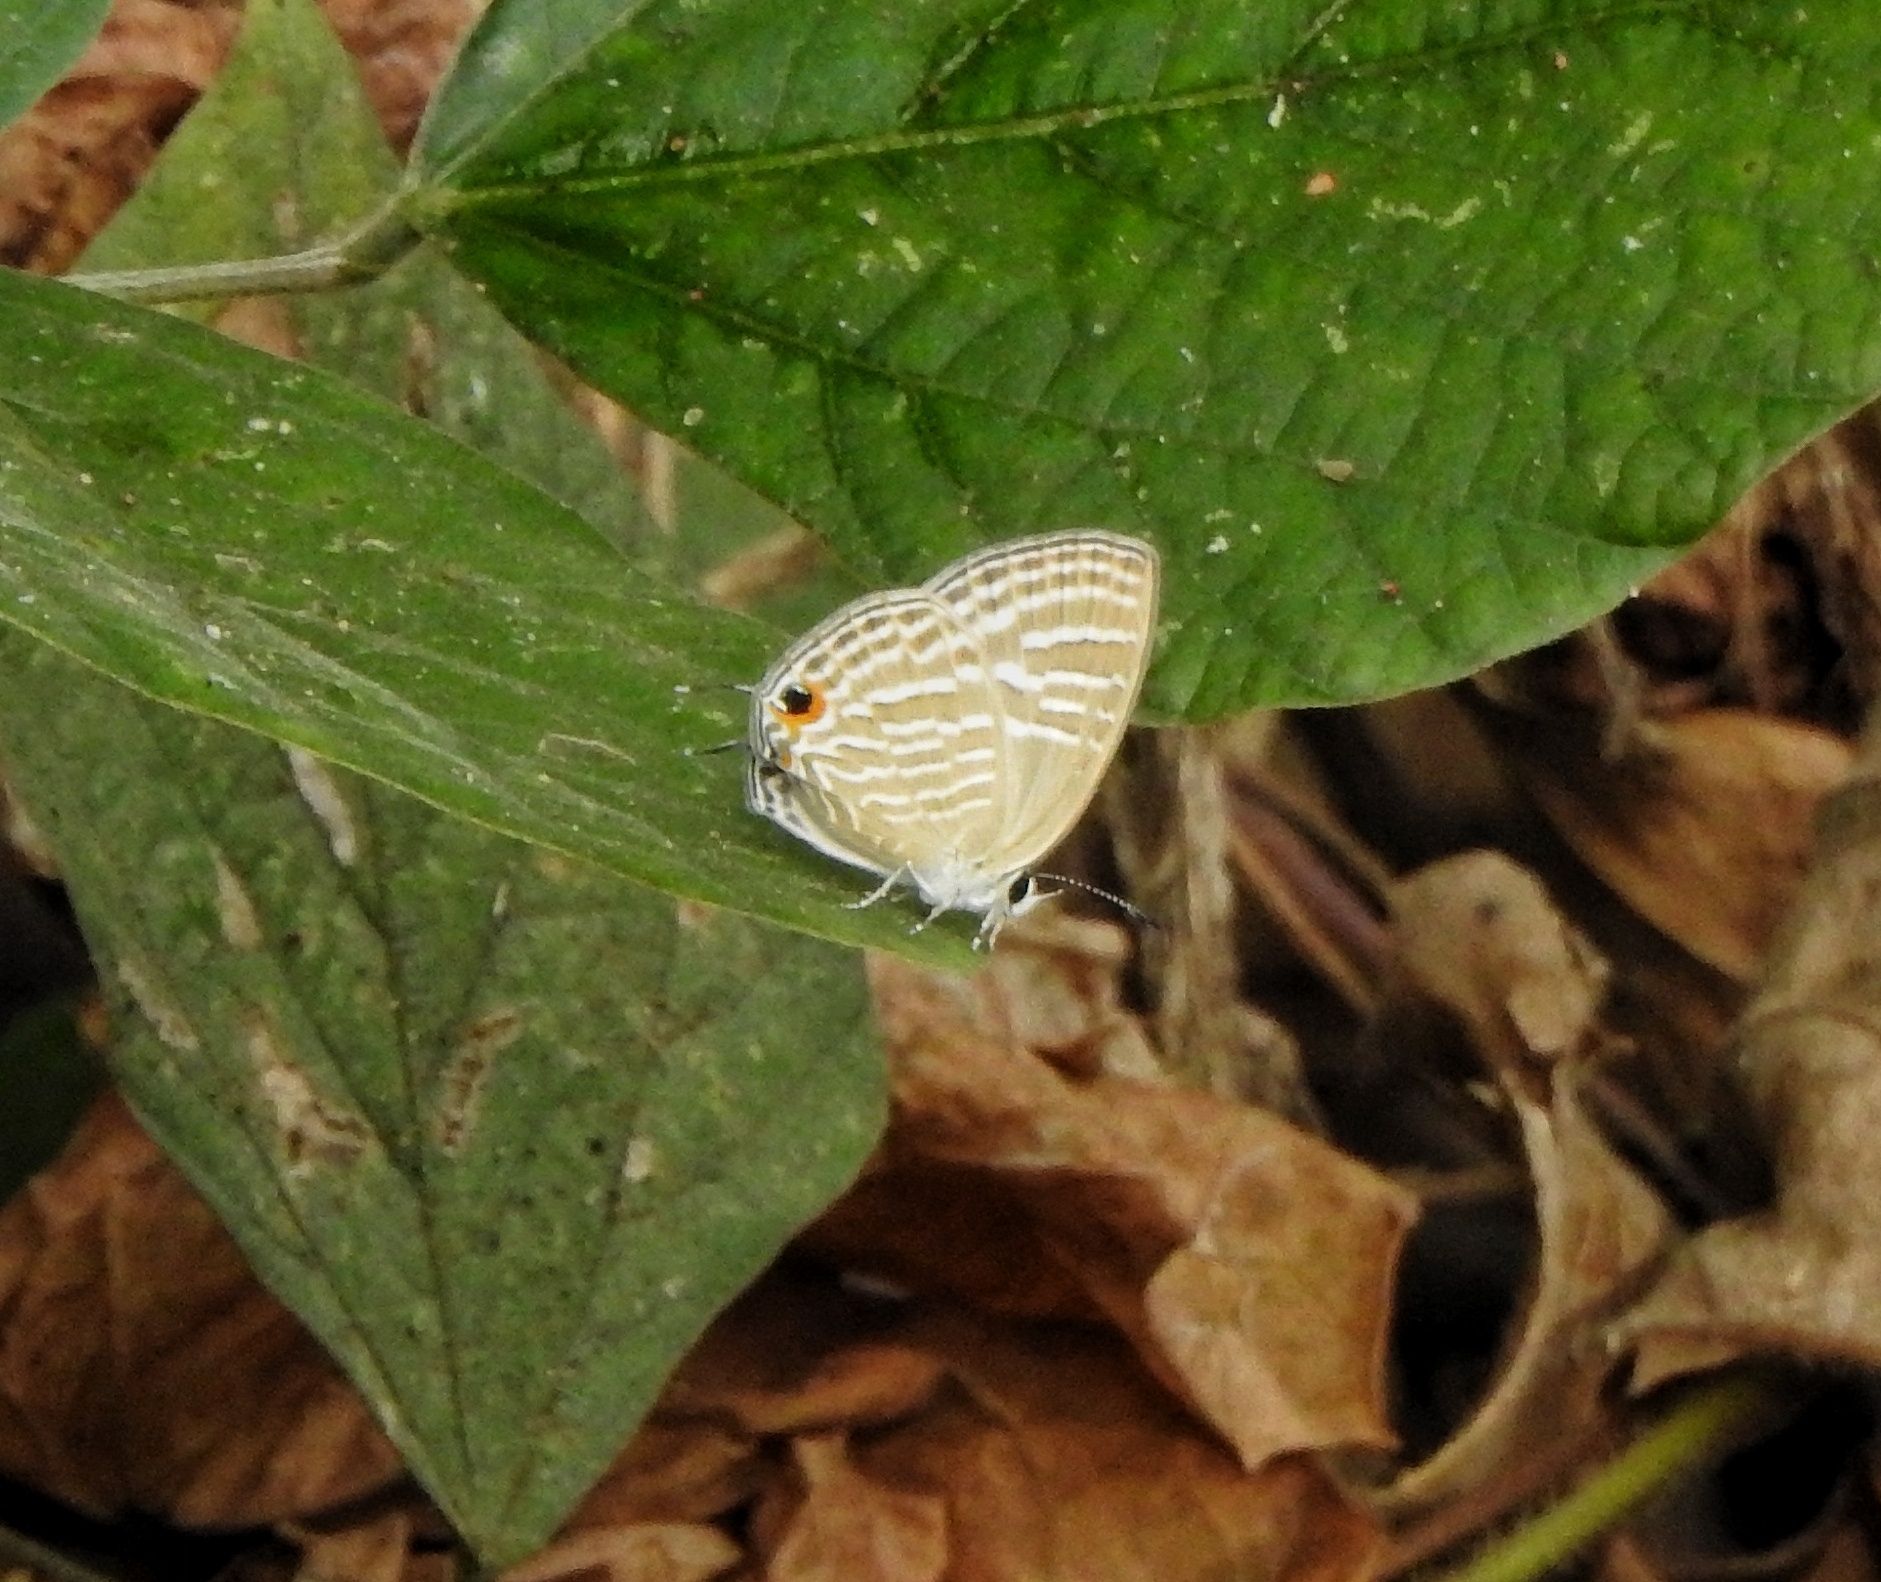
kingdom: Animalia
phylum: Arthropoda
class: Insecta
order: Lepidoptera
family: Lycaenidae
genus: Jamides
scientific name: Jamides celeno
